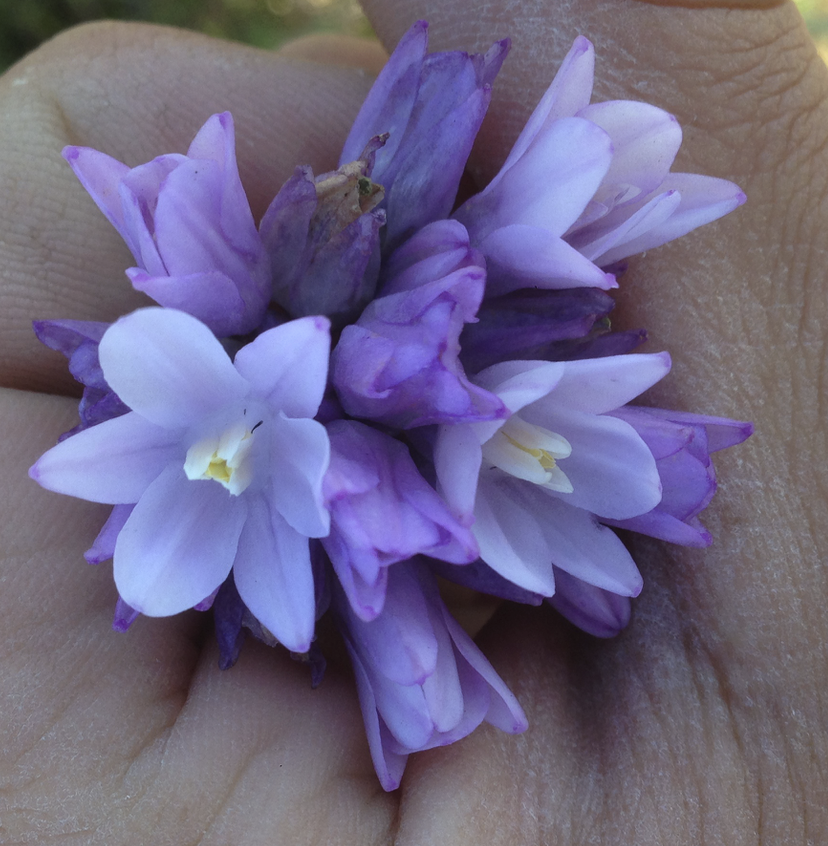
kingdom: Plantae
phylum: Tracheophyta
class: Liliopsida
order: Asparagales
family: Asparagaceae
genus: Dipterostemon
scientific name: Dipterostemon capitatus
